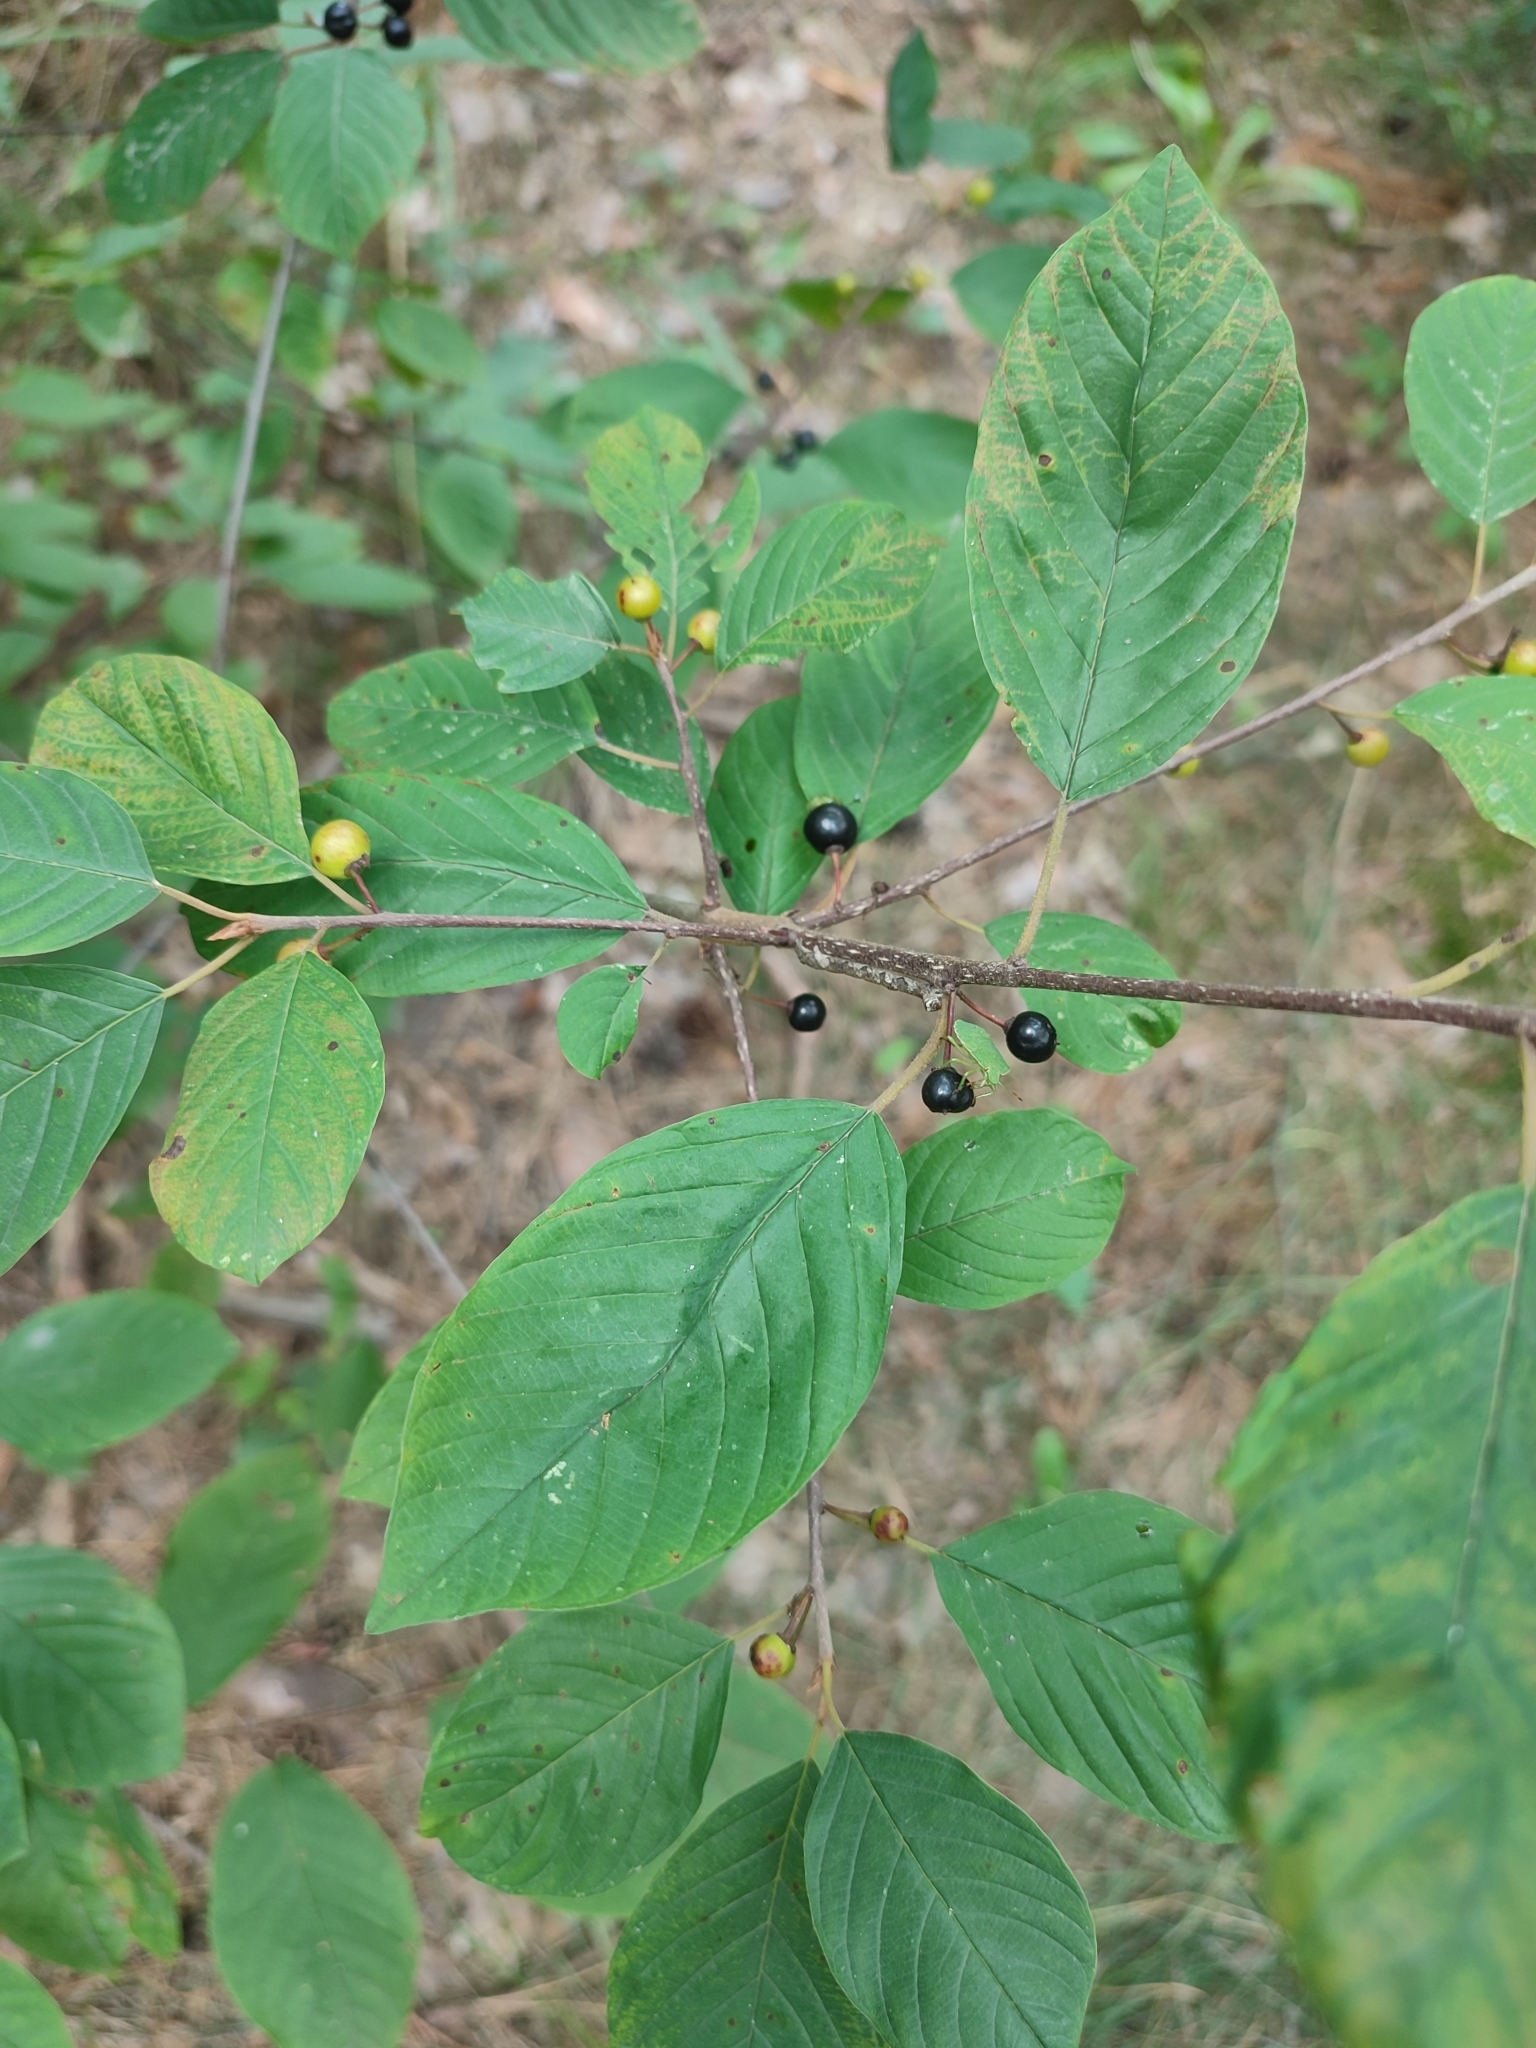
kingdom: Plantae
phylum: Tracheophyta
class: Magnoliopsida
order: Rosales
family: Rhamnaceae
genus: Frangula
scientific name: Frangula alnus
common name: Alder buckthorn
